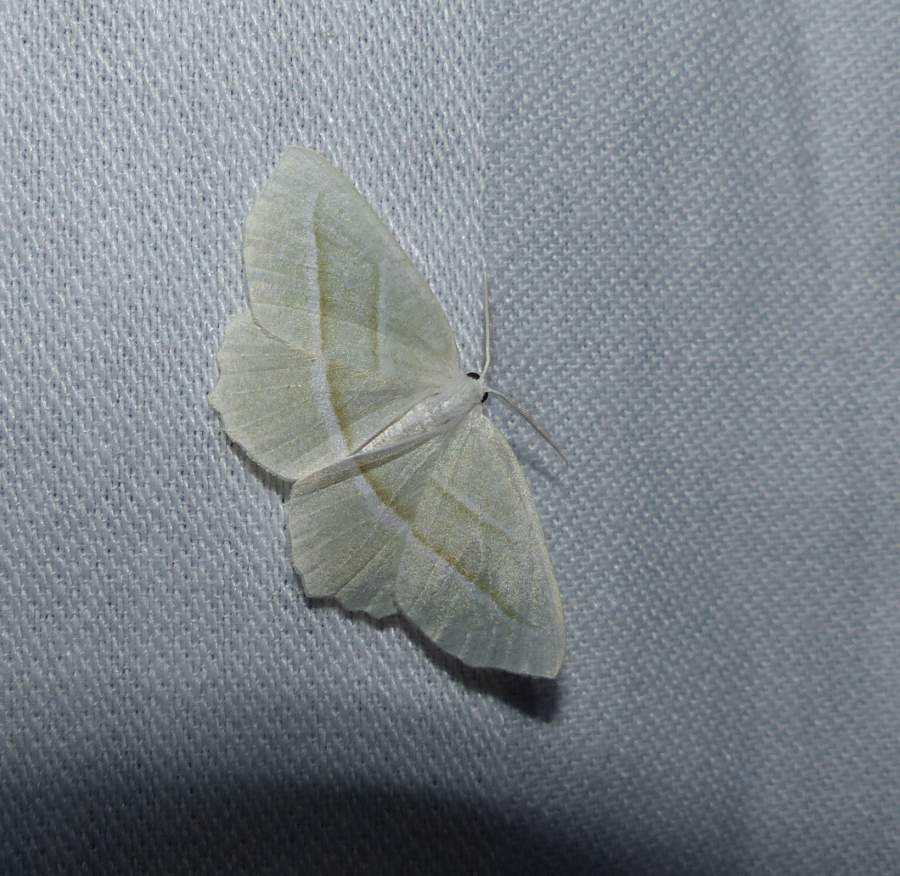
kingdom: Animalia
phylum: Arthropoda
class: Insecta
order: Lepidoptera
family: Geometridae
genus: Campaea
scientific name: Campaea perlata
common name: Fringed looper
